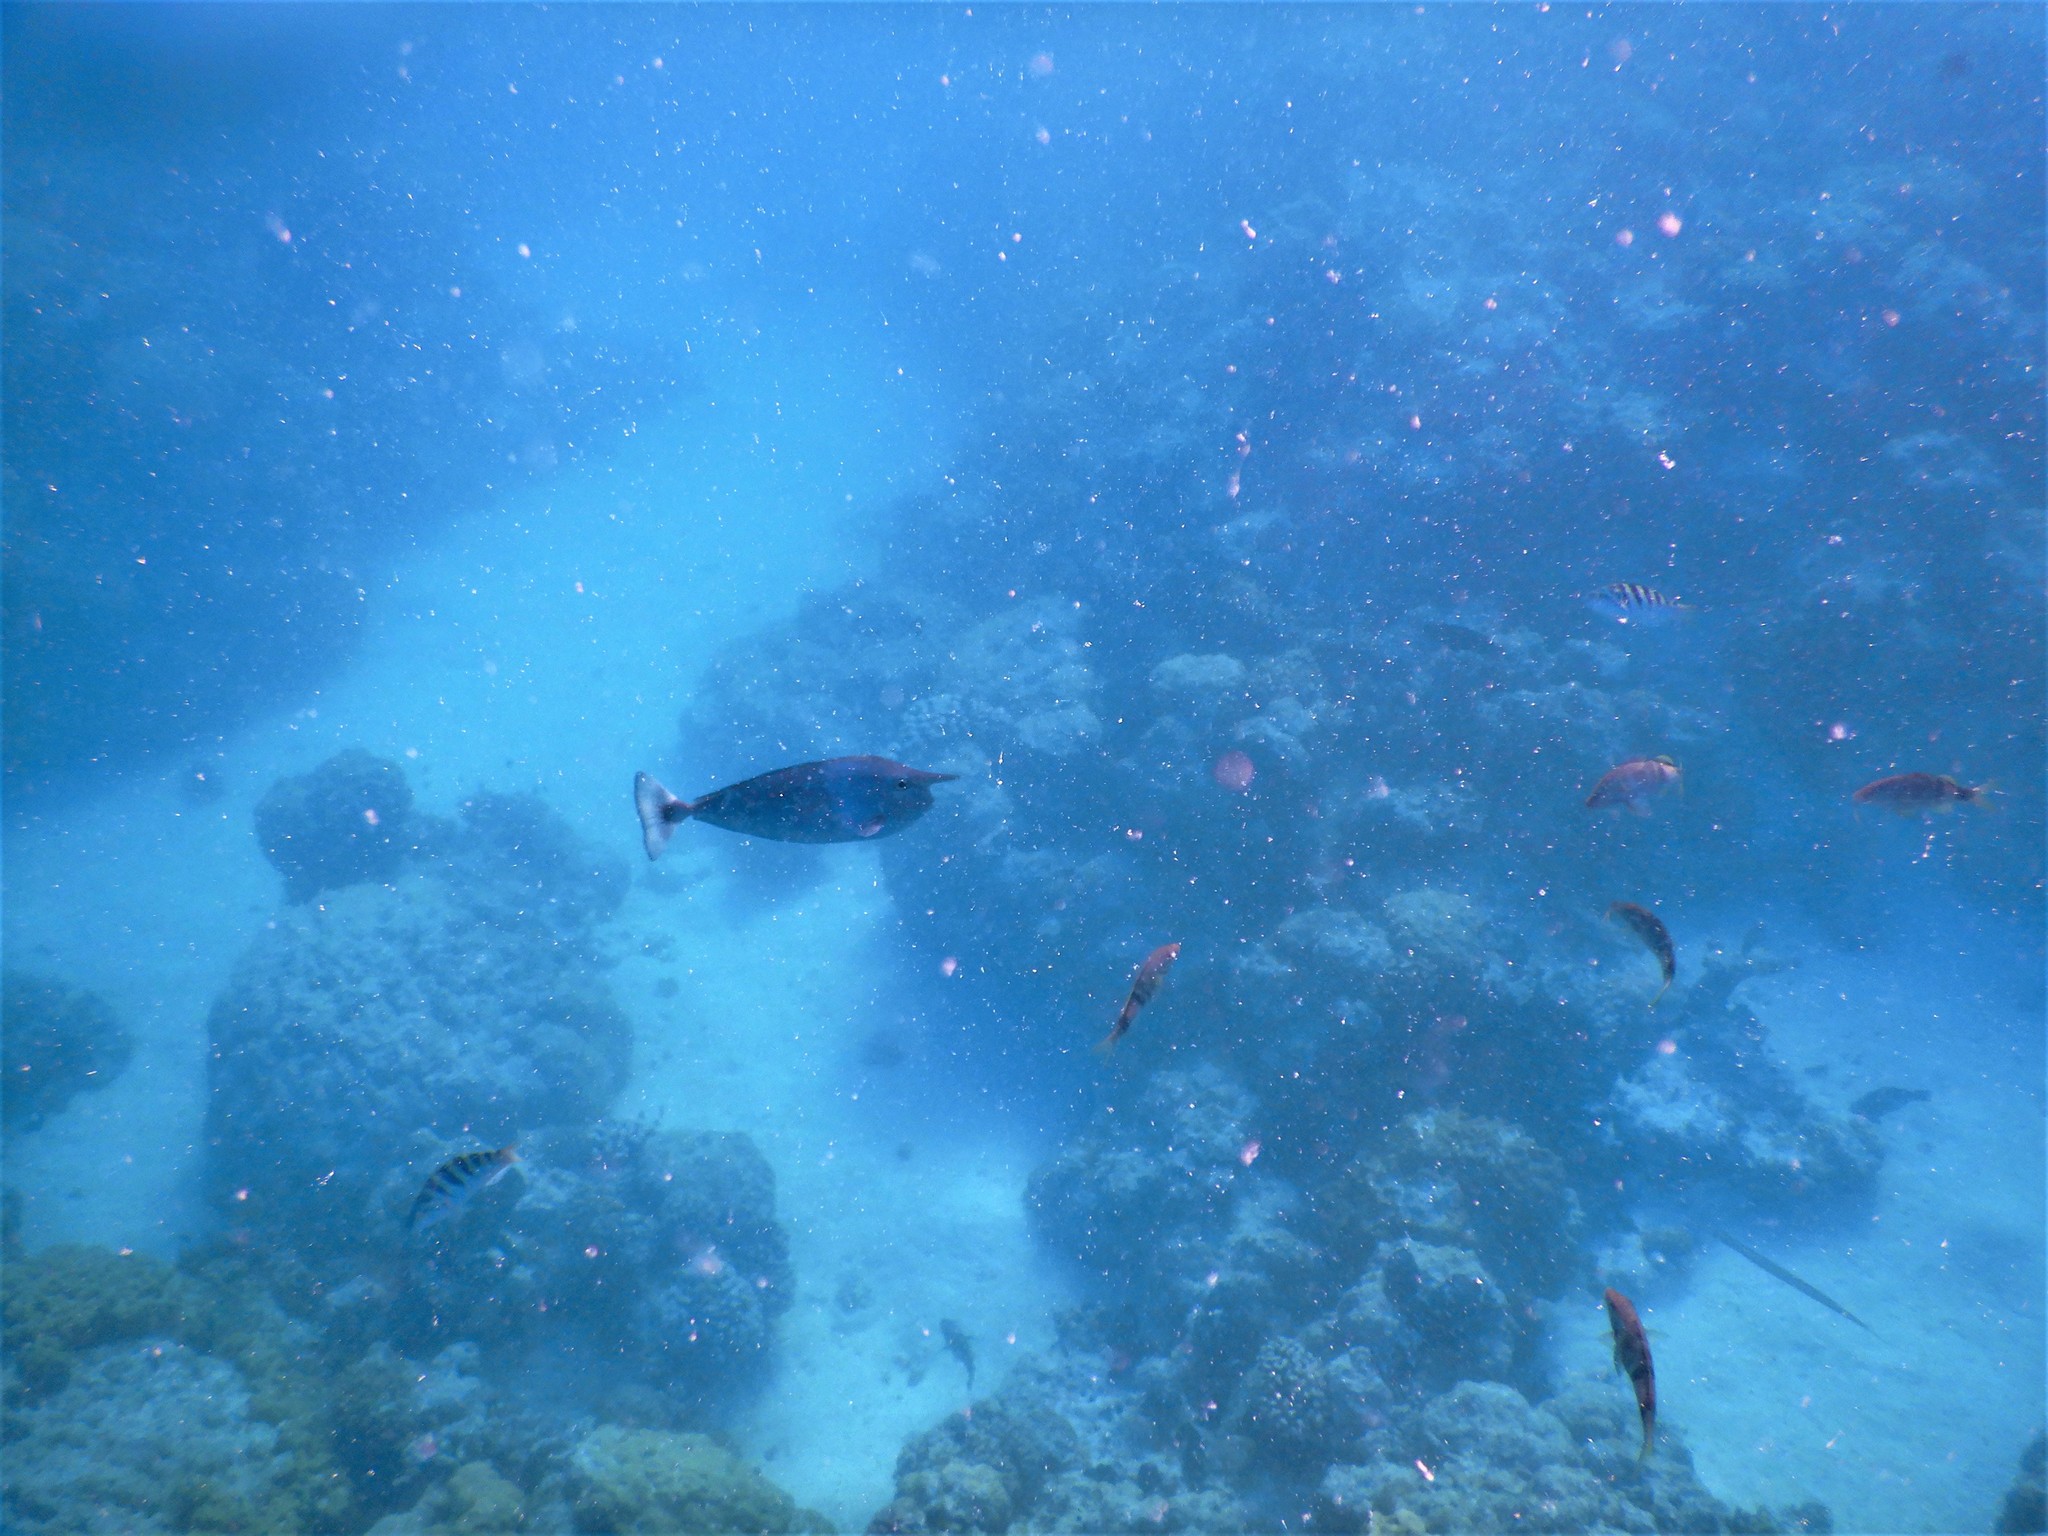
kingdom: Animalia
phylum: Chordata
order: Perciformes
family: Acanthuridae
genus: Naso
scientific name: Naso brevirostris
